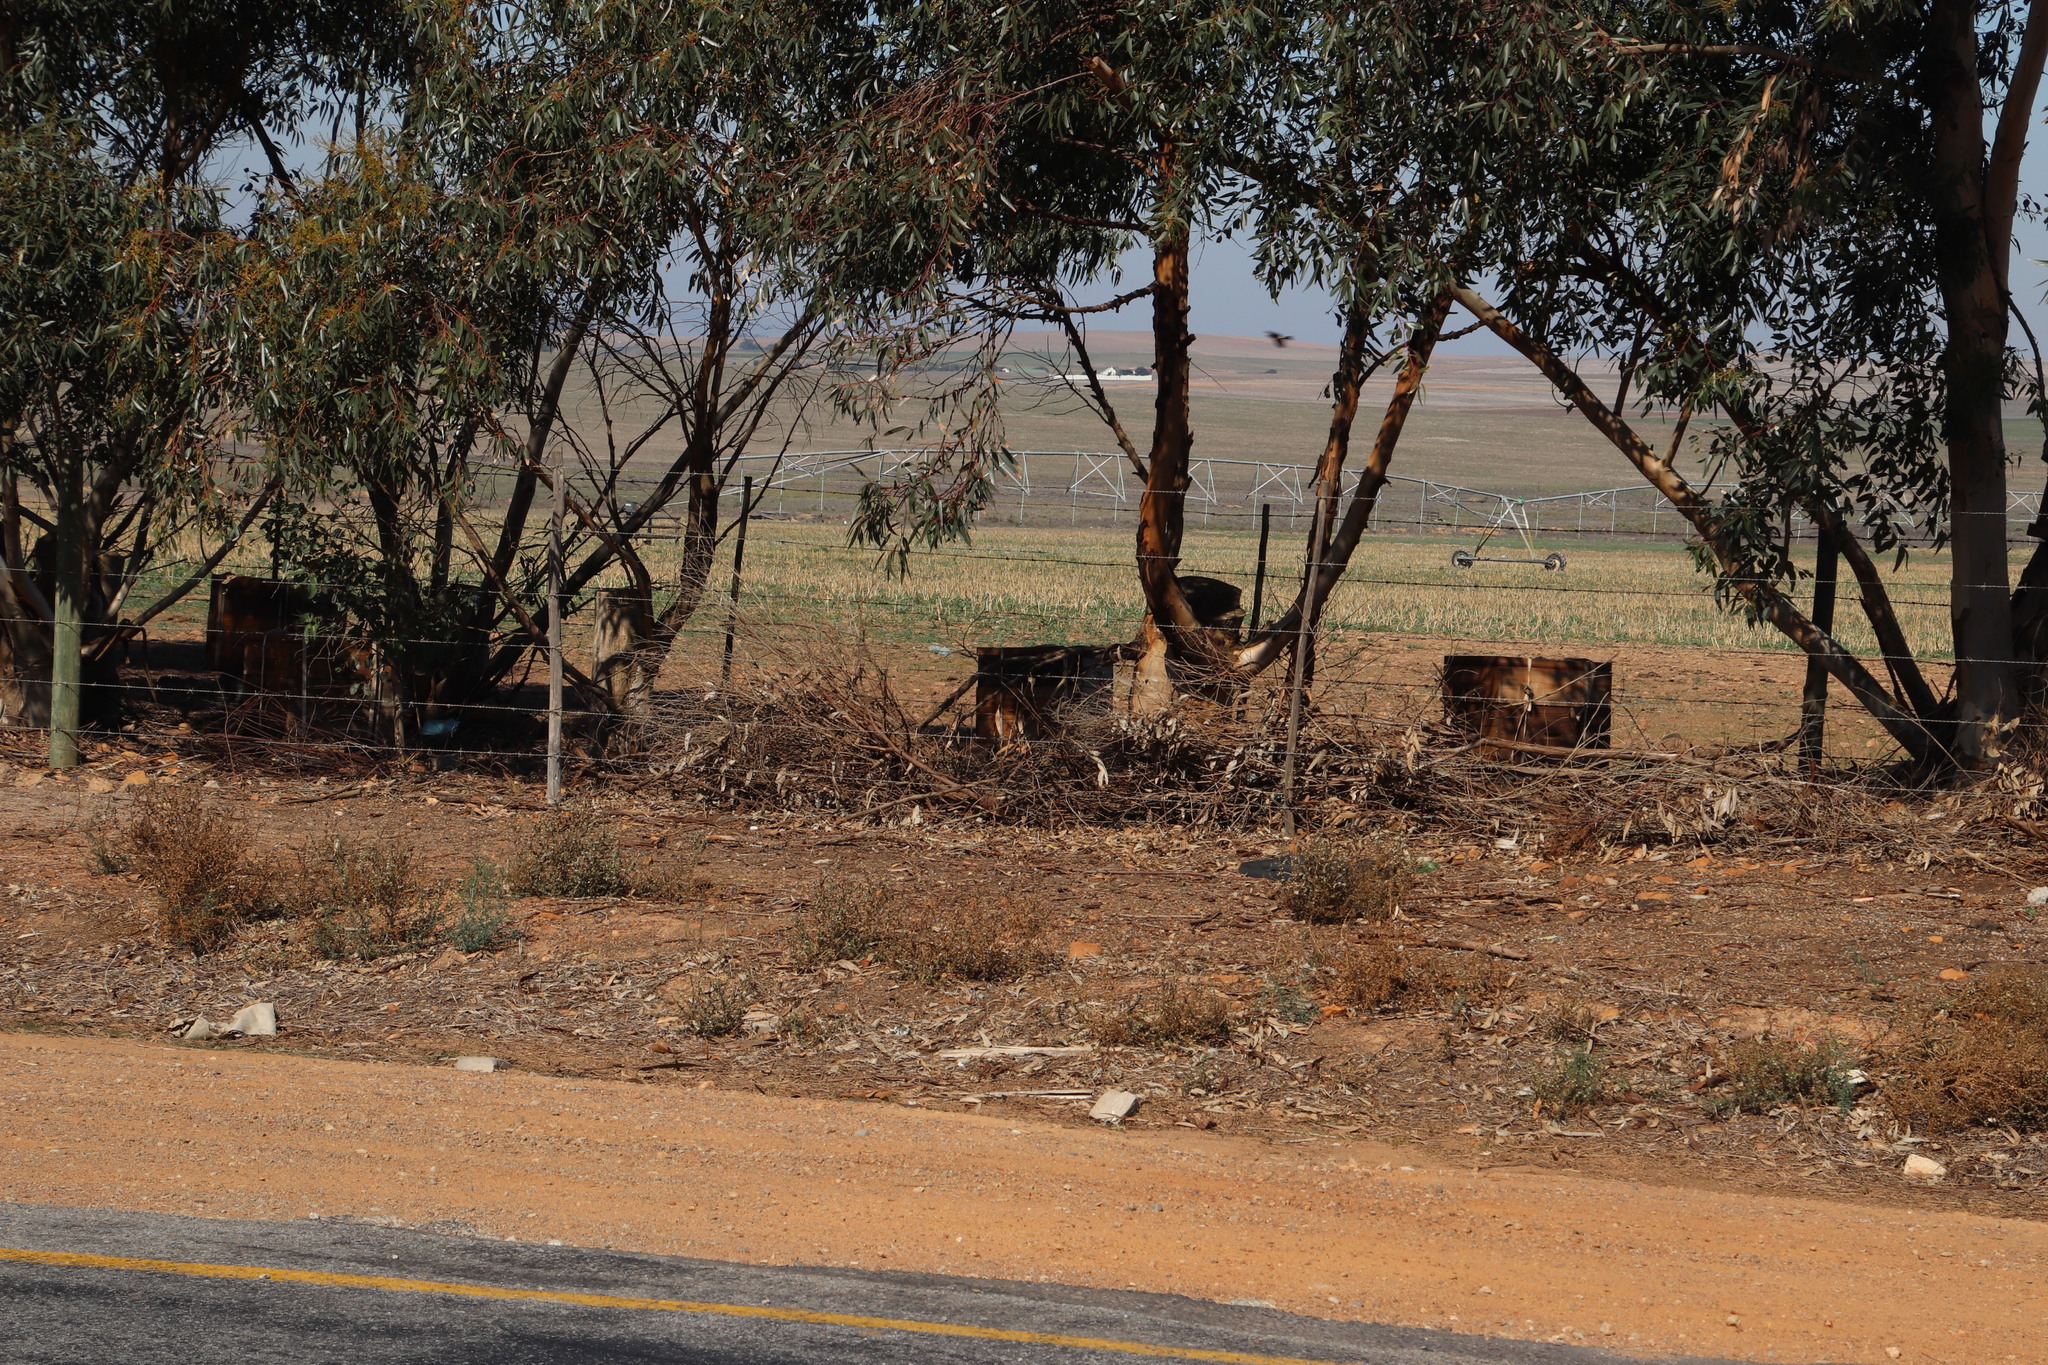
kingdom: Animalia
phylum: Arthropoda
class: Insecta
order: Hymenoptera
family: Apidae
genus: Apis
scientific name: Apis mellifera
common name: Honey bee
